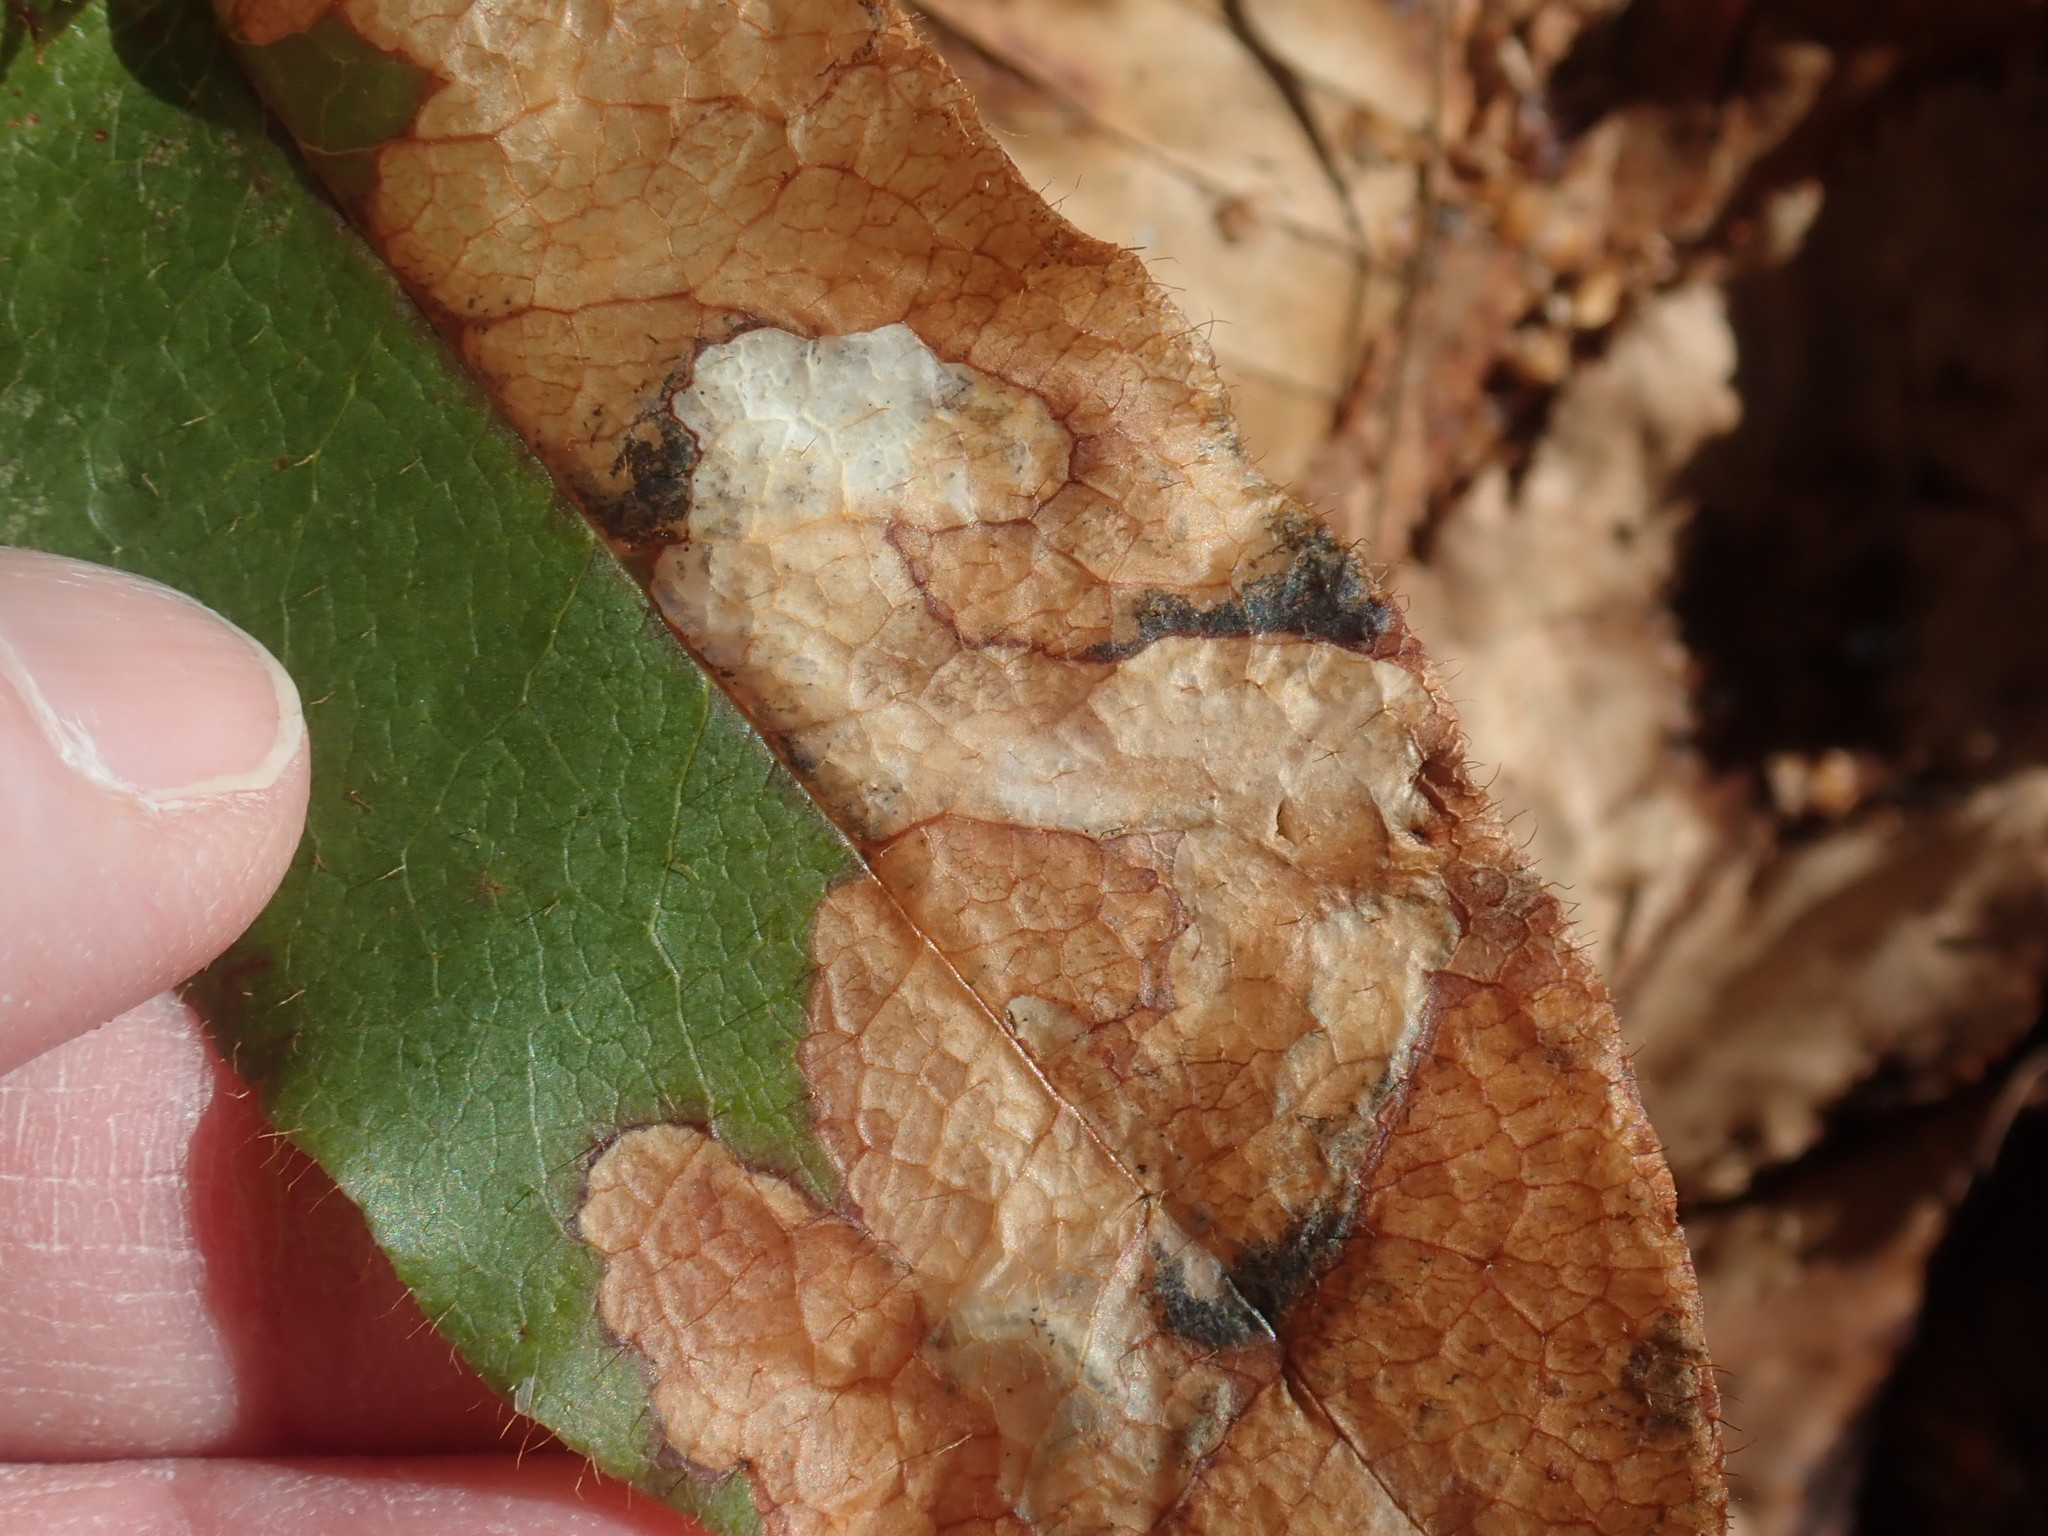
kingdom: Animalia
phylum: Arthropoda
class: Insecta
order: Coleoptera
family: Buprestidae
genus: Brachys
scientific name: Brachys
